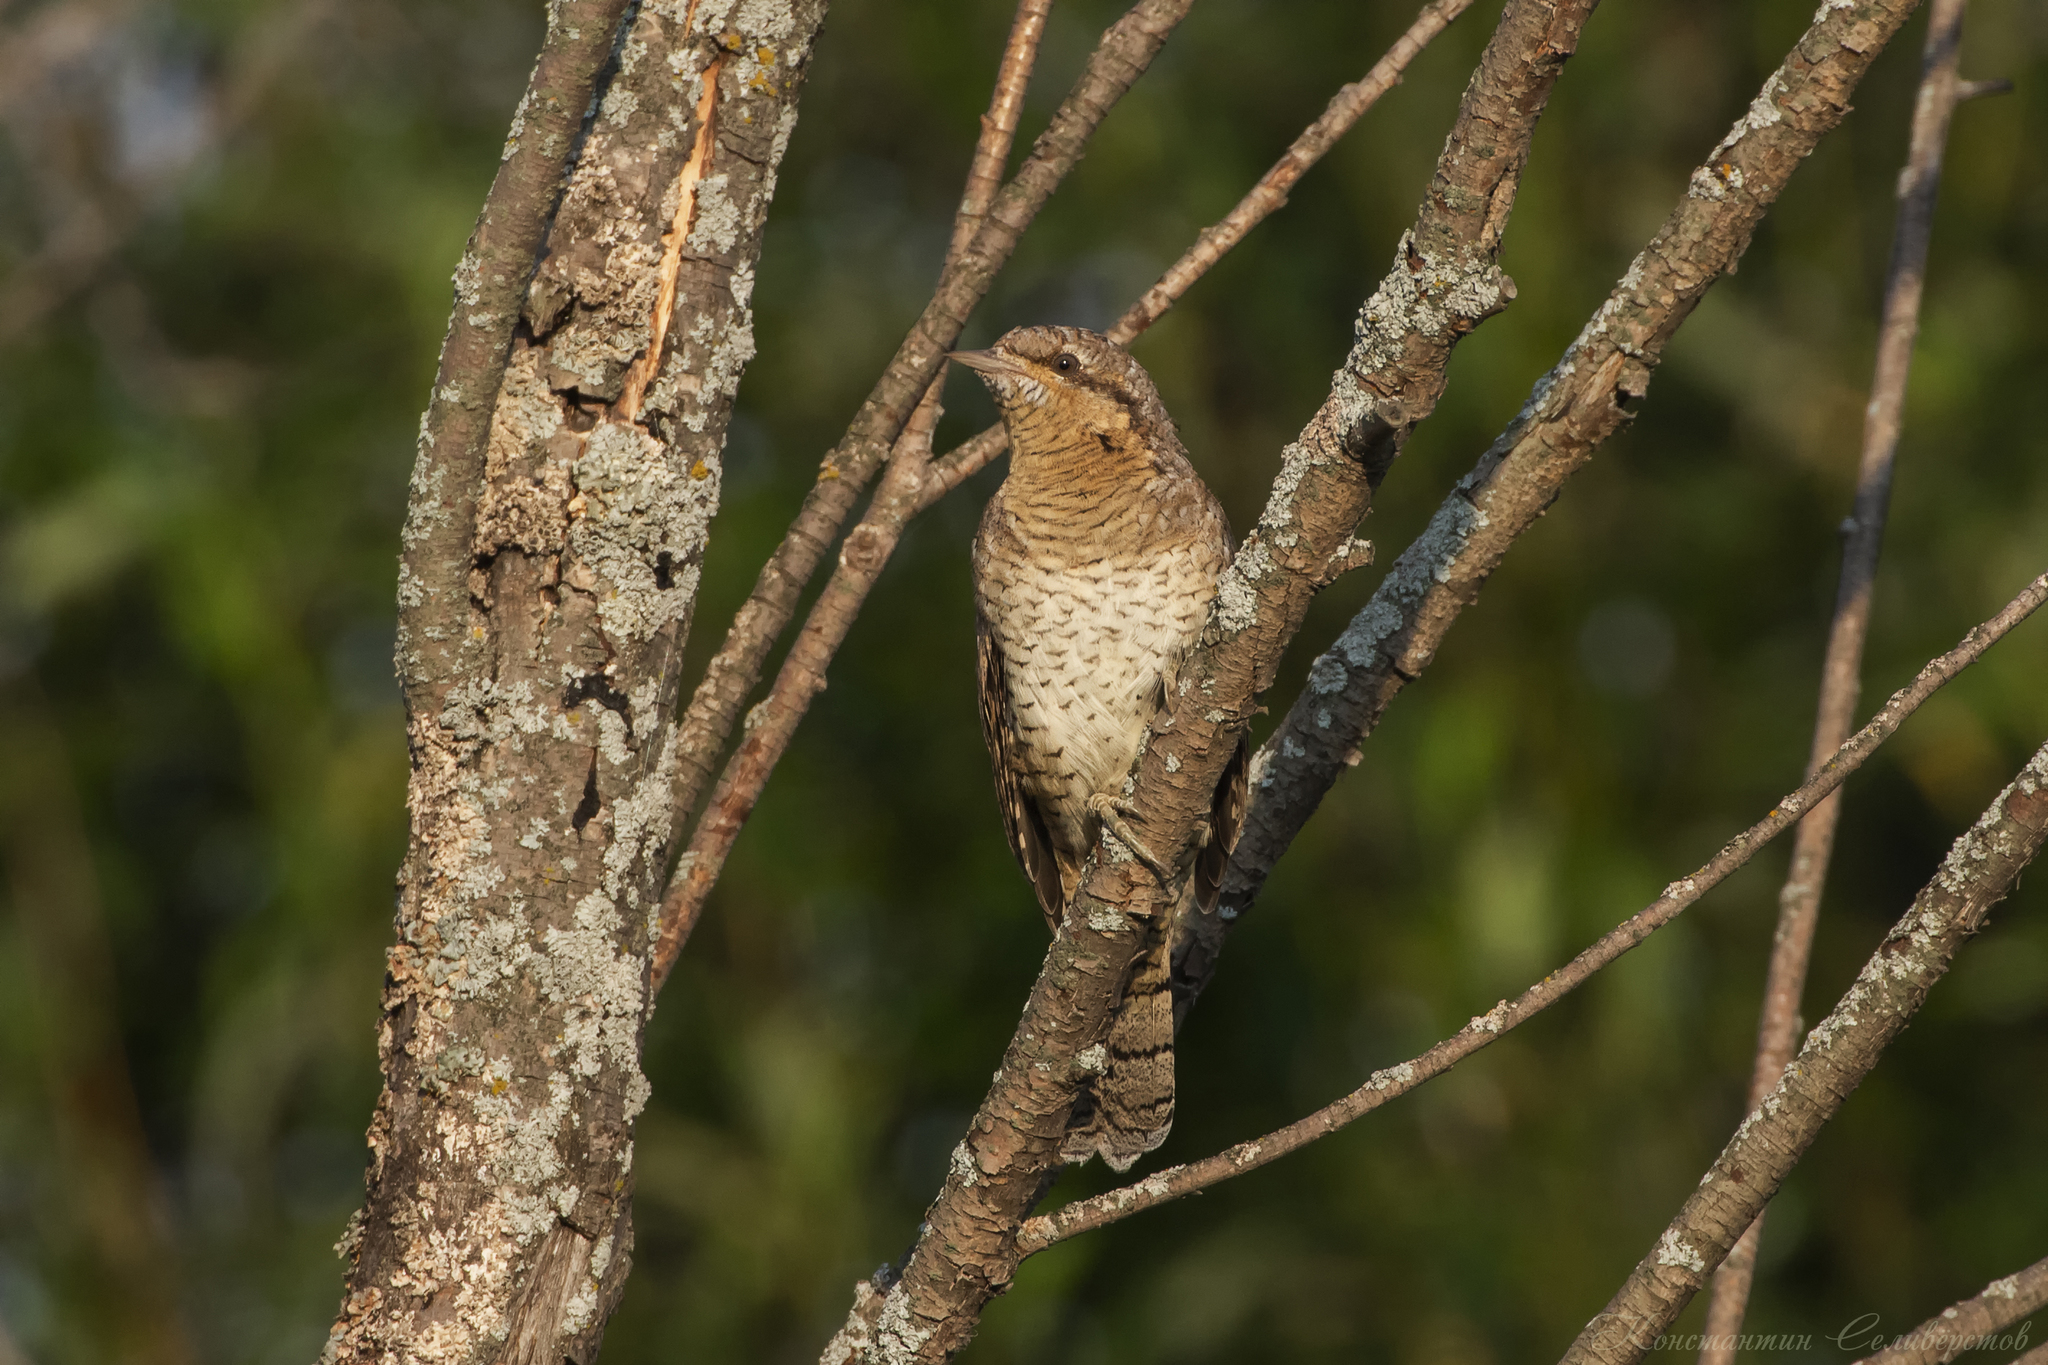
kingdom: Animalia
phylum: Chordata
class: Aves
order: Piciformes
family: Picidae
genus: Jynx
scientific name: Jynx torquilla
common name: Eurasian wryneck
